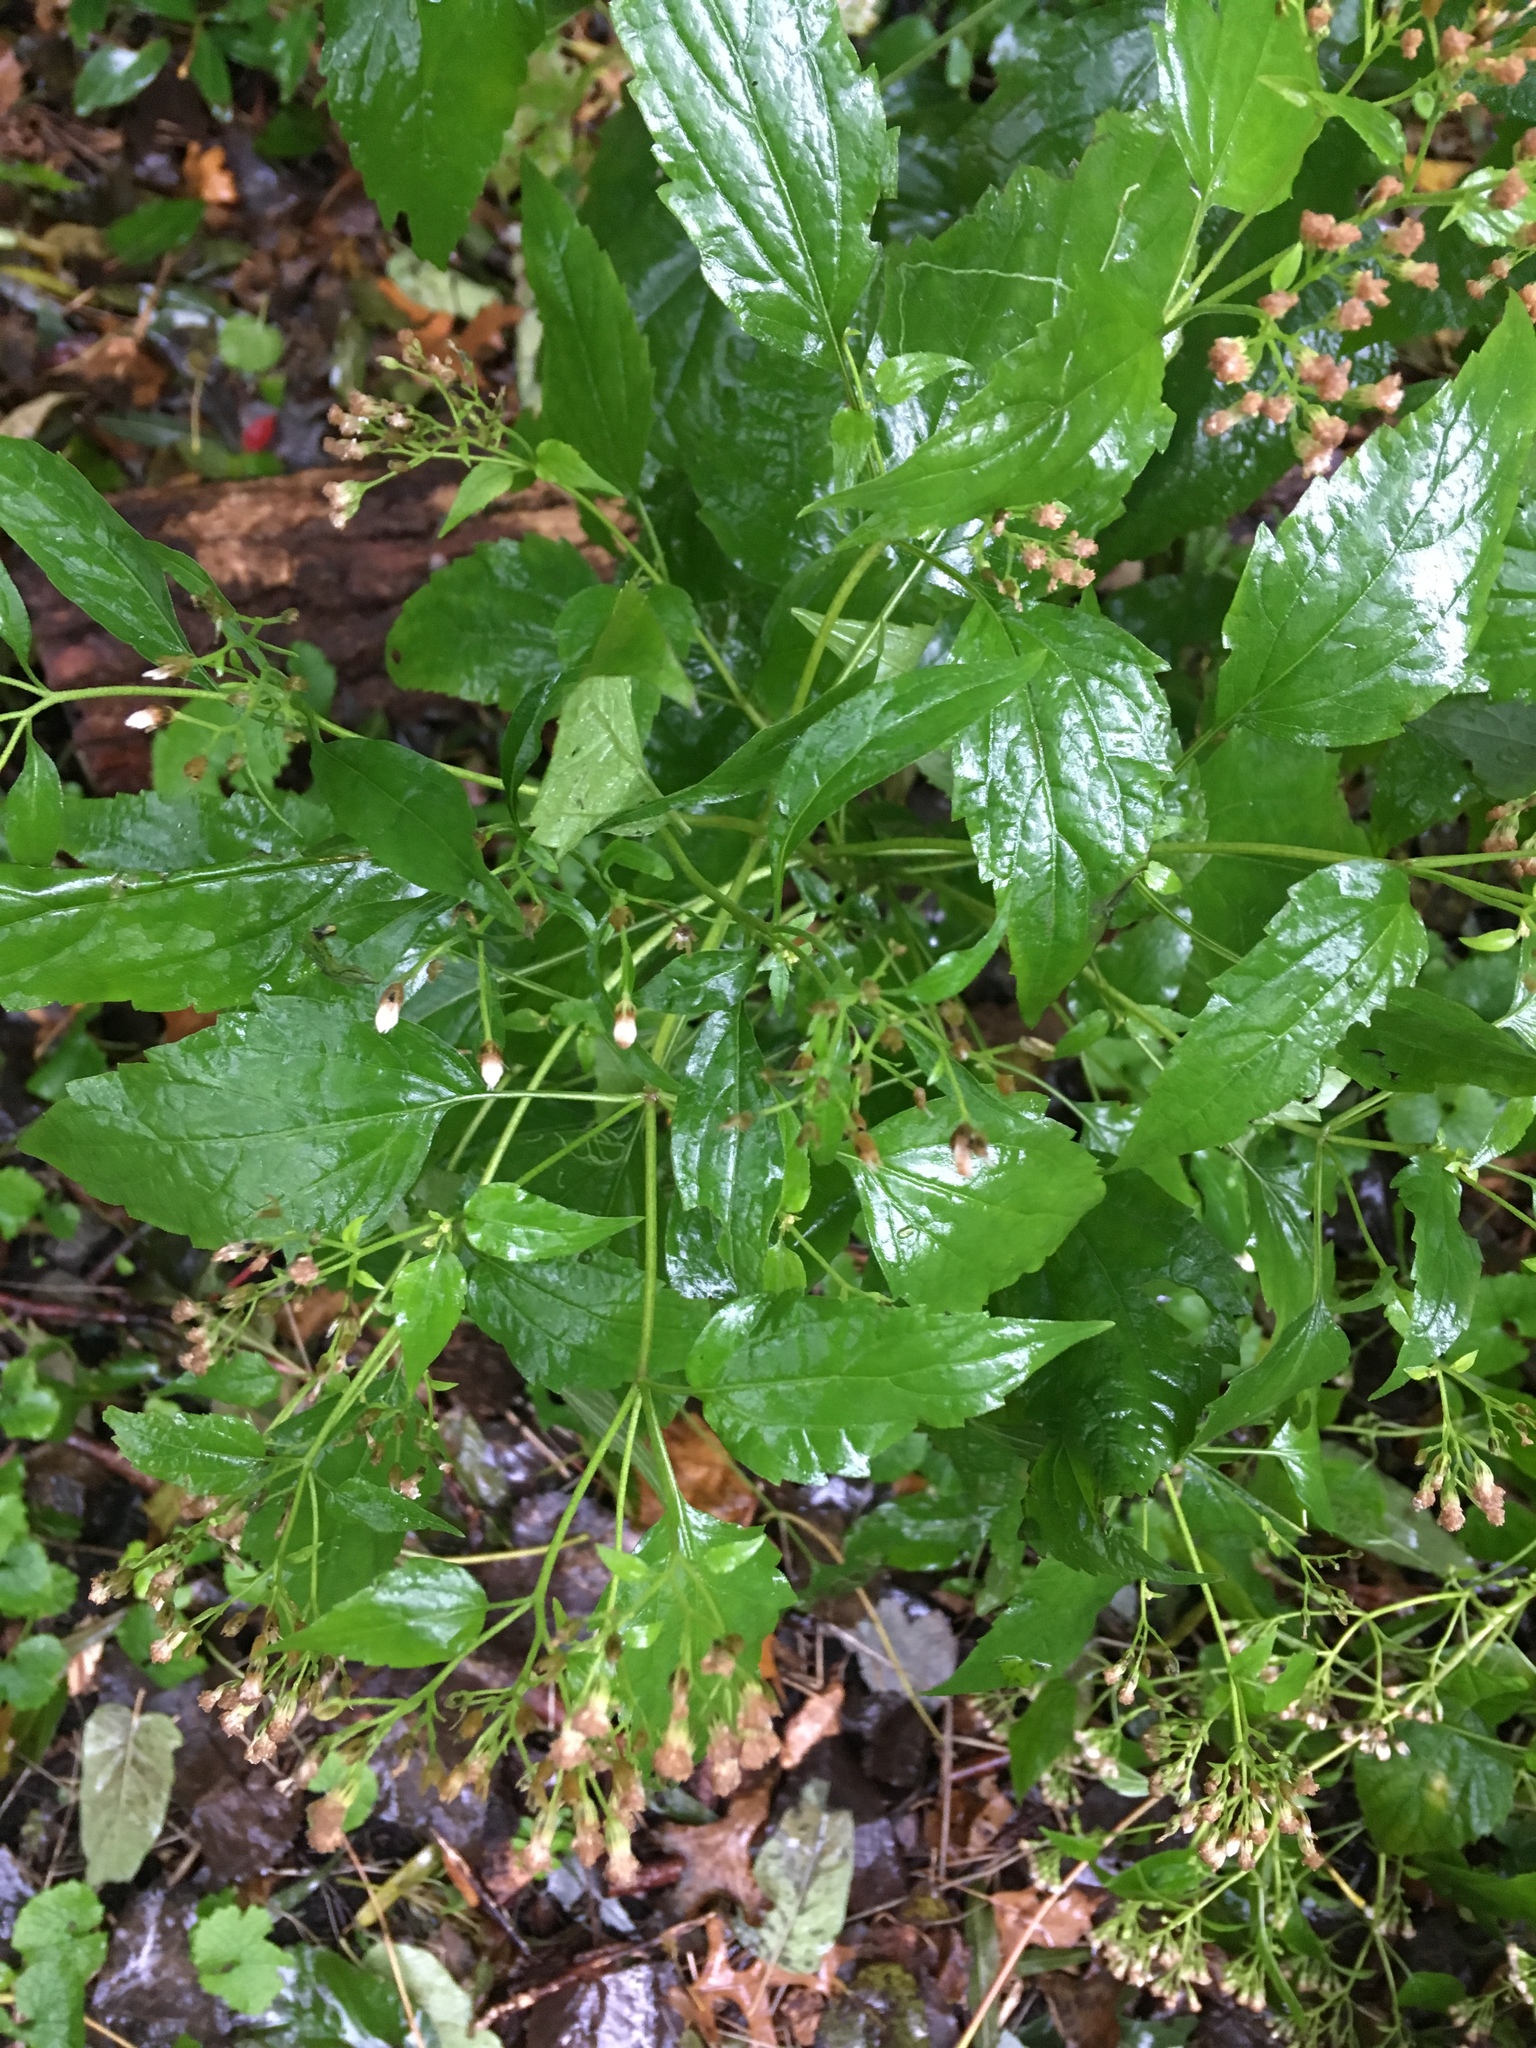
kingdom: Plantae
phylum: Tracheophyta
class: Magnoliopsida
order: Asterales
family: Asteraceae
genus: Ageratina
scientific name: Ageratina altissima
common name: White snakeroot
